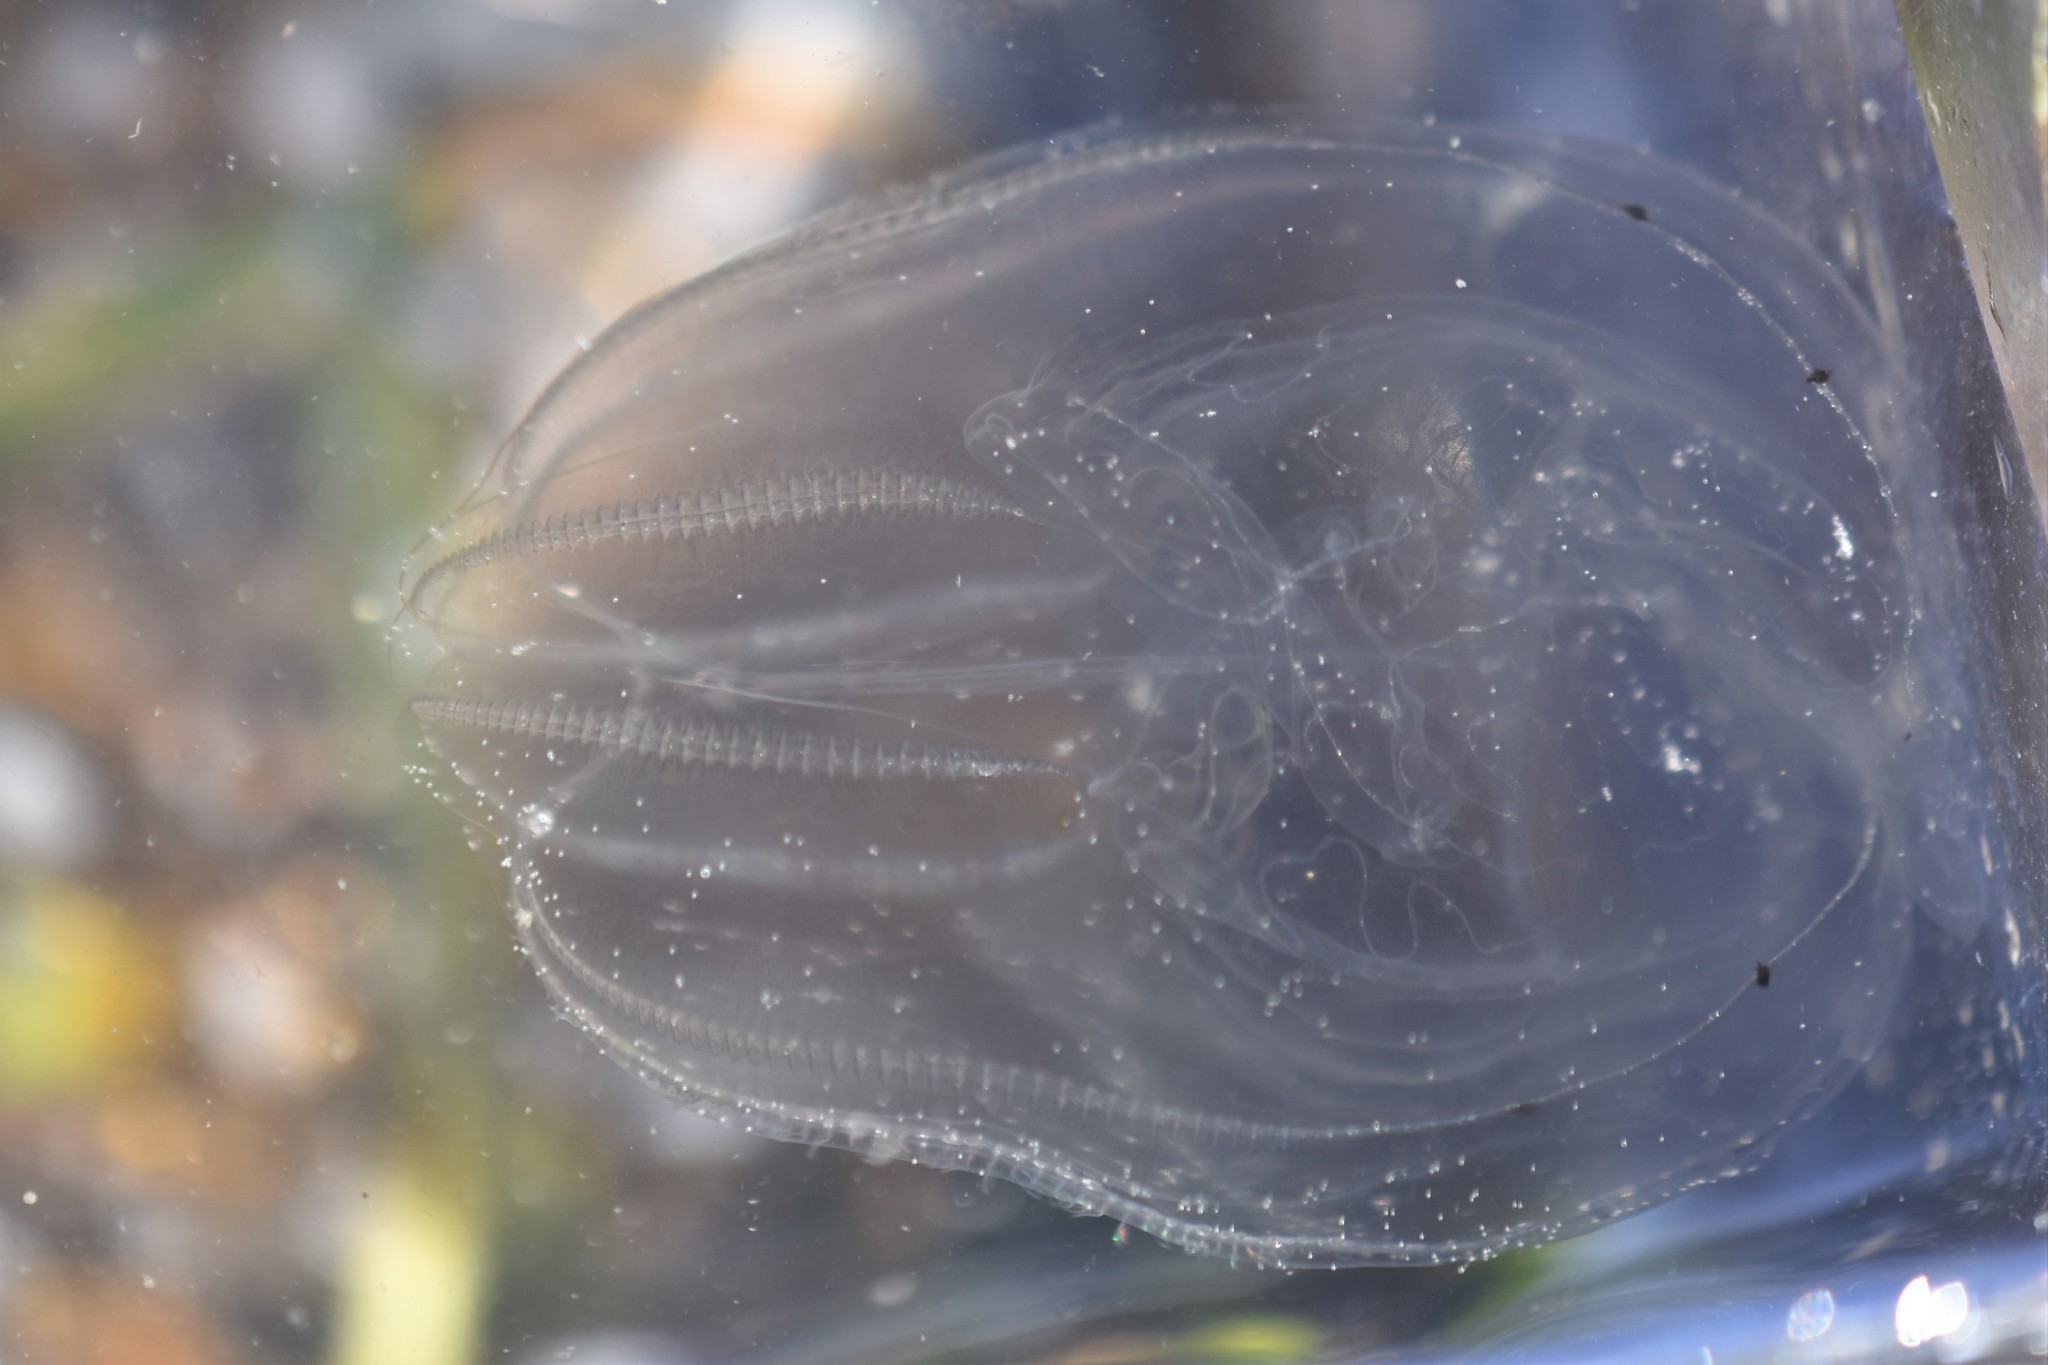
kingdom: Animalia
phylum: Ctenophora
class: Tentaculata
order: Lobata
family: Bolinopsidae
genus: Bolinopsis
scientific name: Bolinopsis microptera
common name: Short-lobed comb jelly
